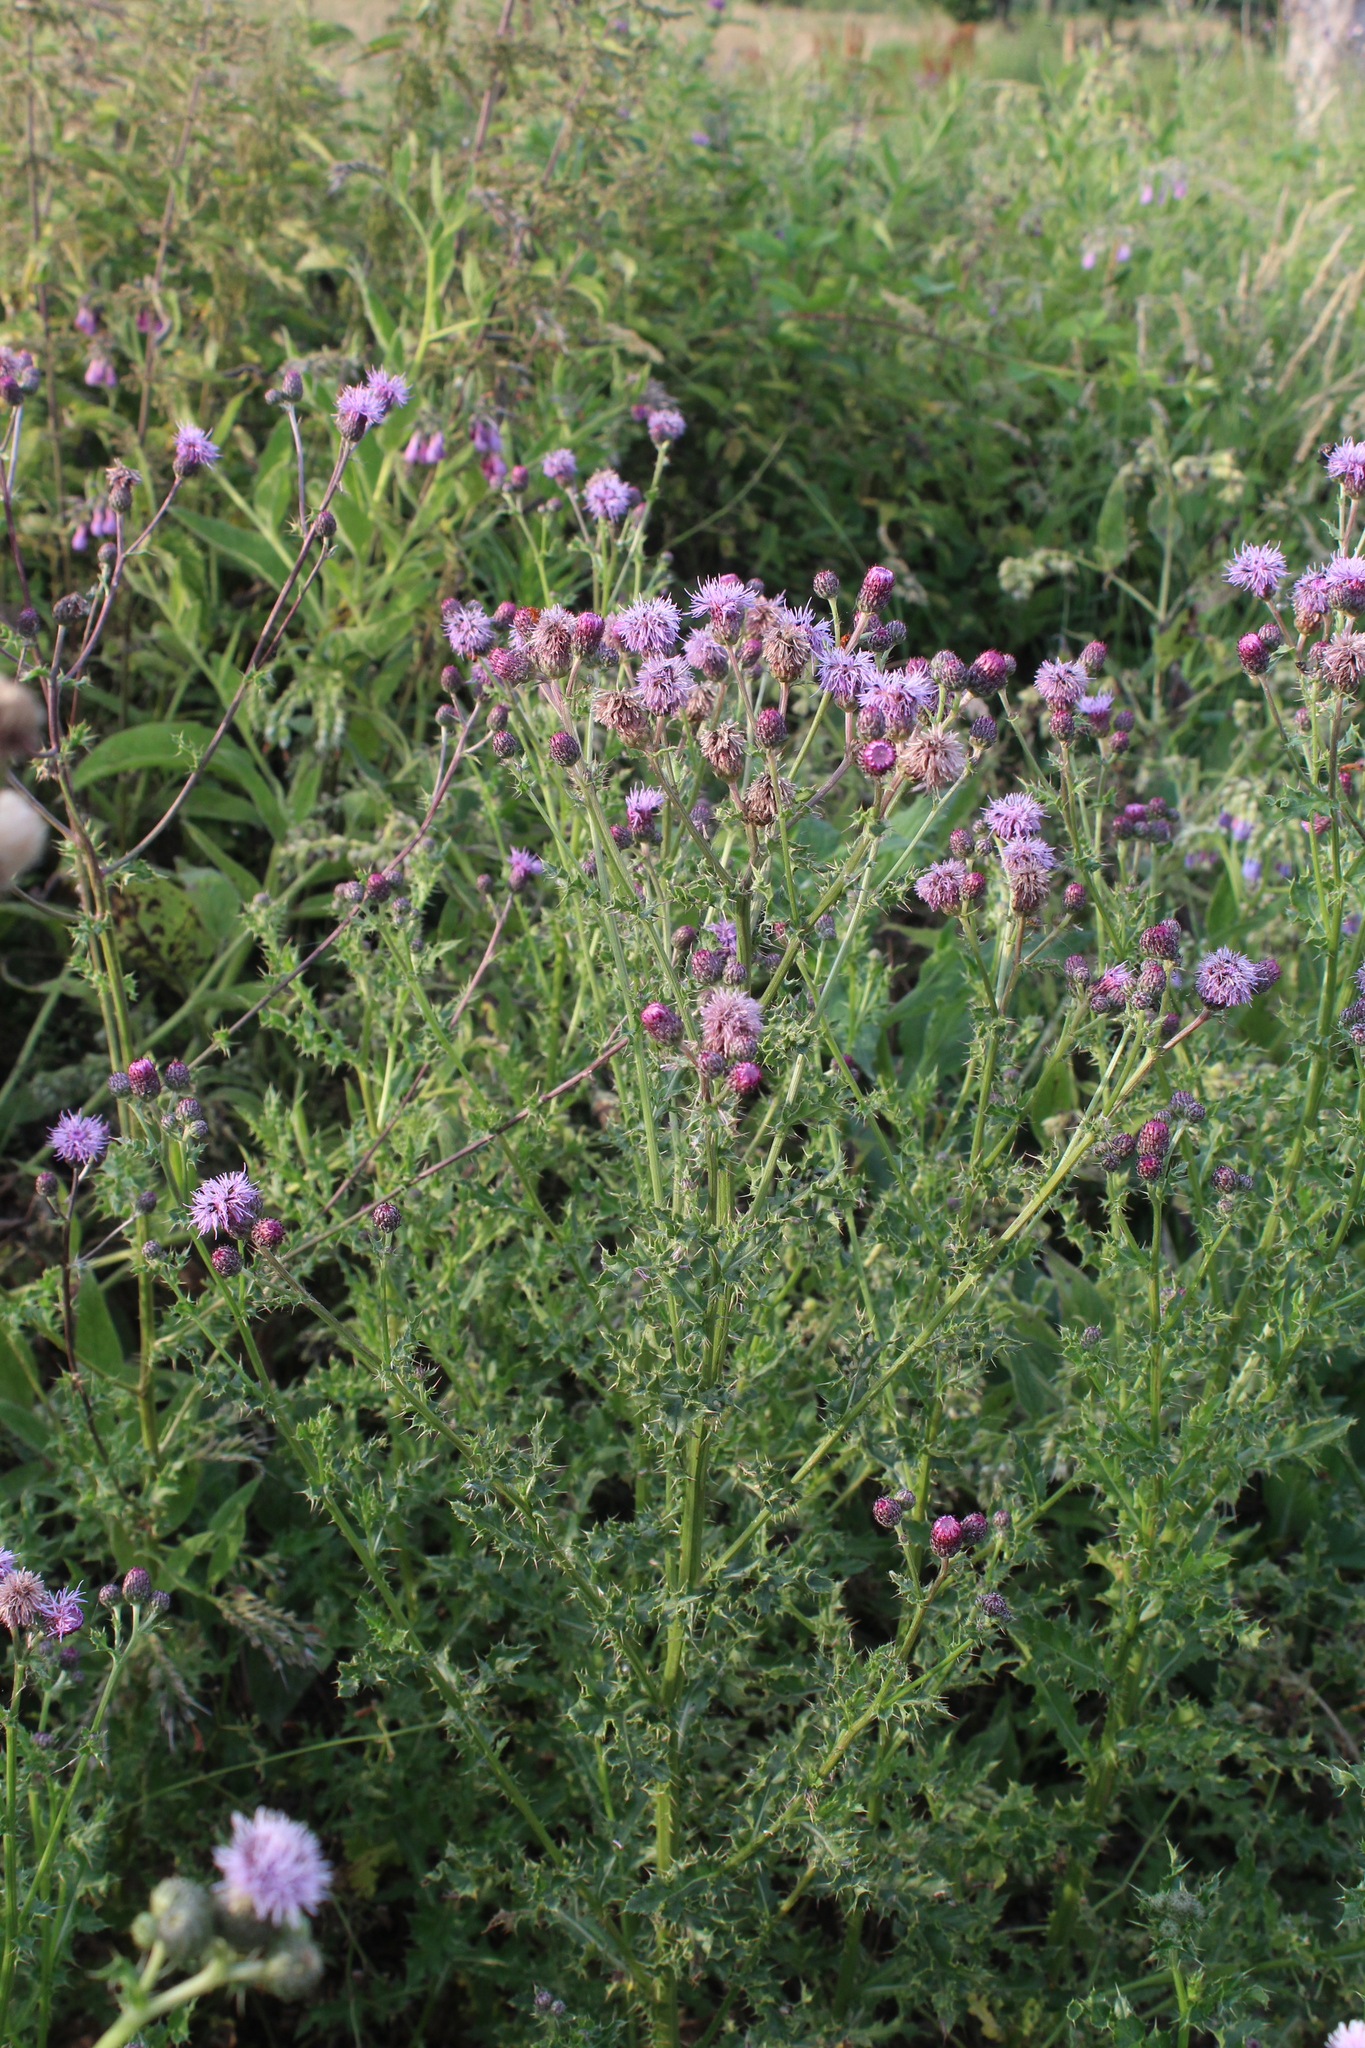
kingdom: Plantae
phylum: Tracheophyta
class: Magnoliopsida
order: Asterales
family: Asteraceae
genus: Cirsium
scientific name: Cirsium arvense
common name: Creeping thistle
